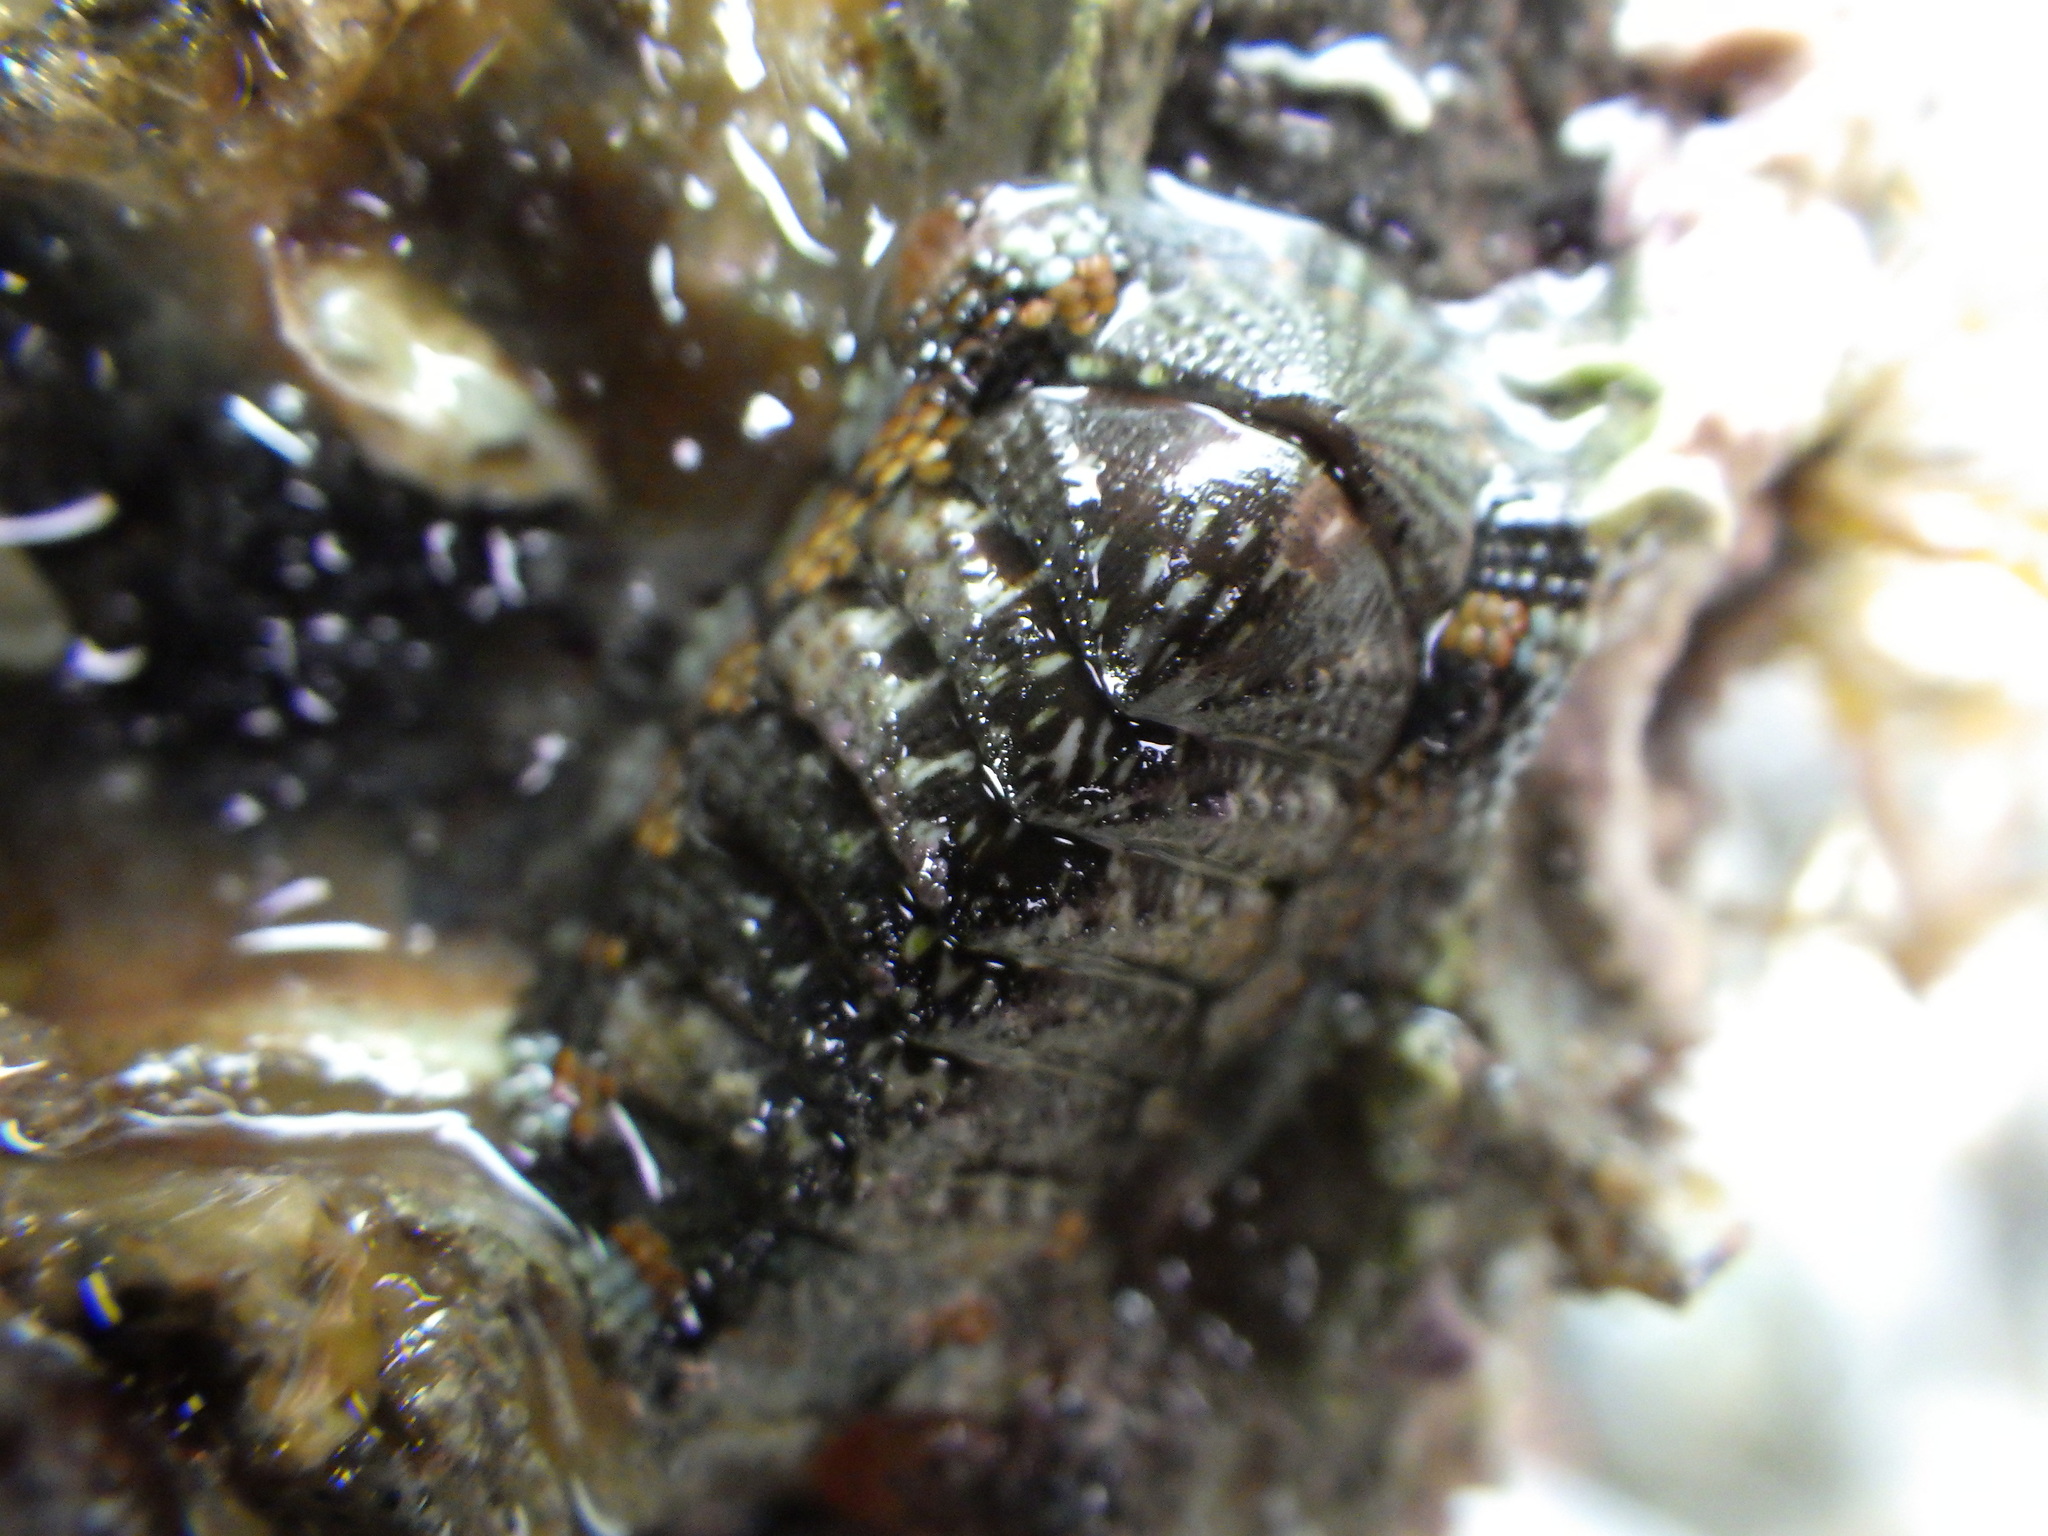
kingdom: Animalia
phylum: Mollusca
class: Polyplacophora
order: Chitonida
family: Chitonidae
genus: Sypharochiton
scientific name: Sypharochiton sinclairi
